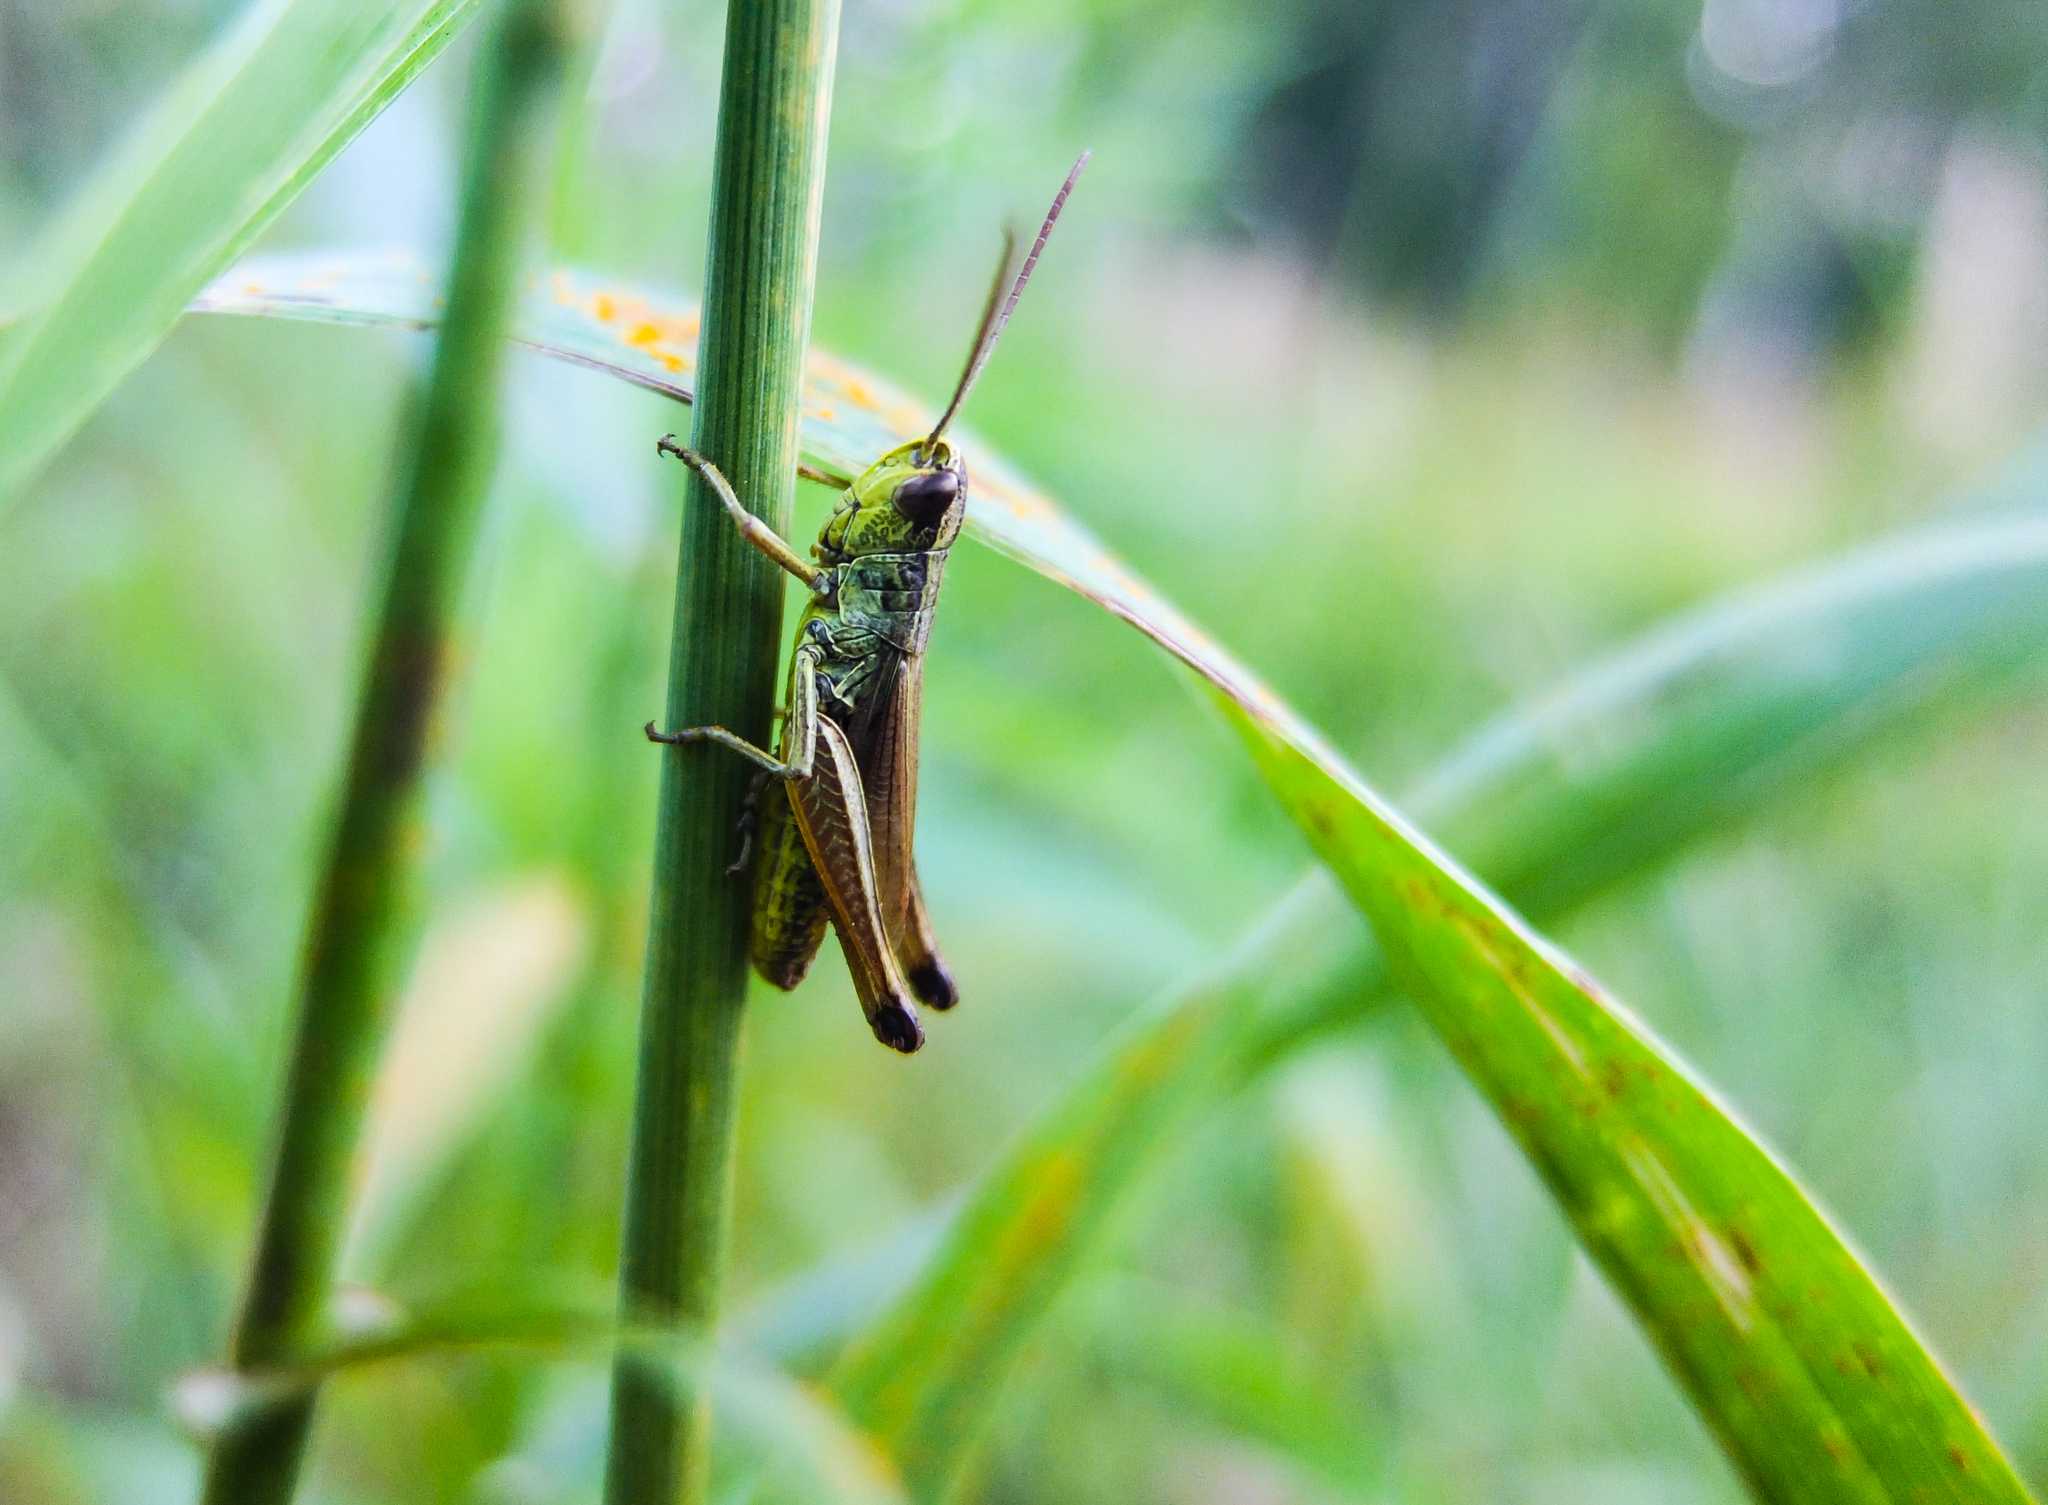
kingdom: Animalia
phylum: Arthropoda
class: Insecta
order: Orthoptera
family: Acrididae
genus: Pseudochorthippus
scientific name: Pseudochorthippus parallelus
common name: Meadow grasshopper
